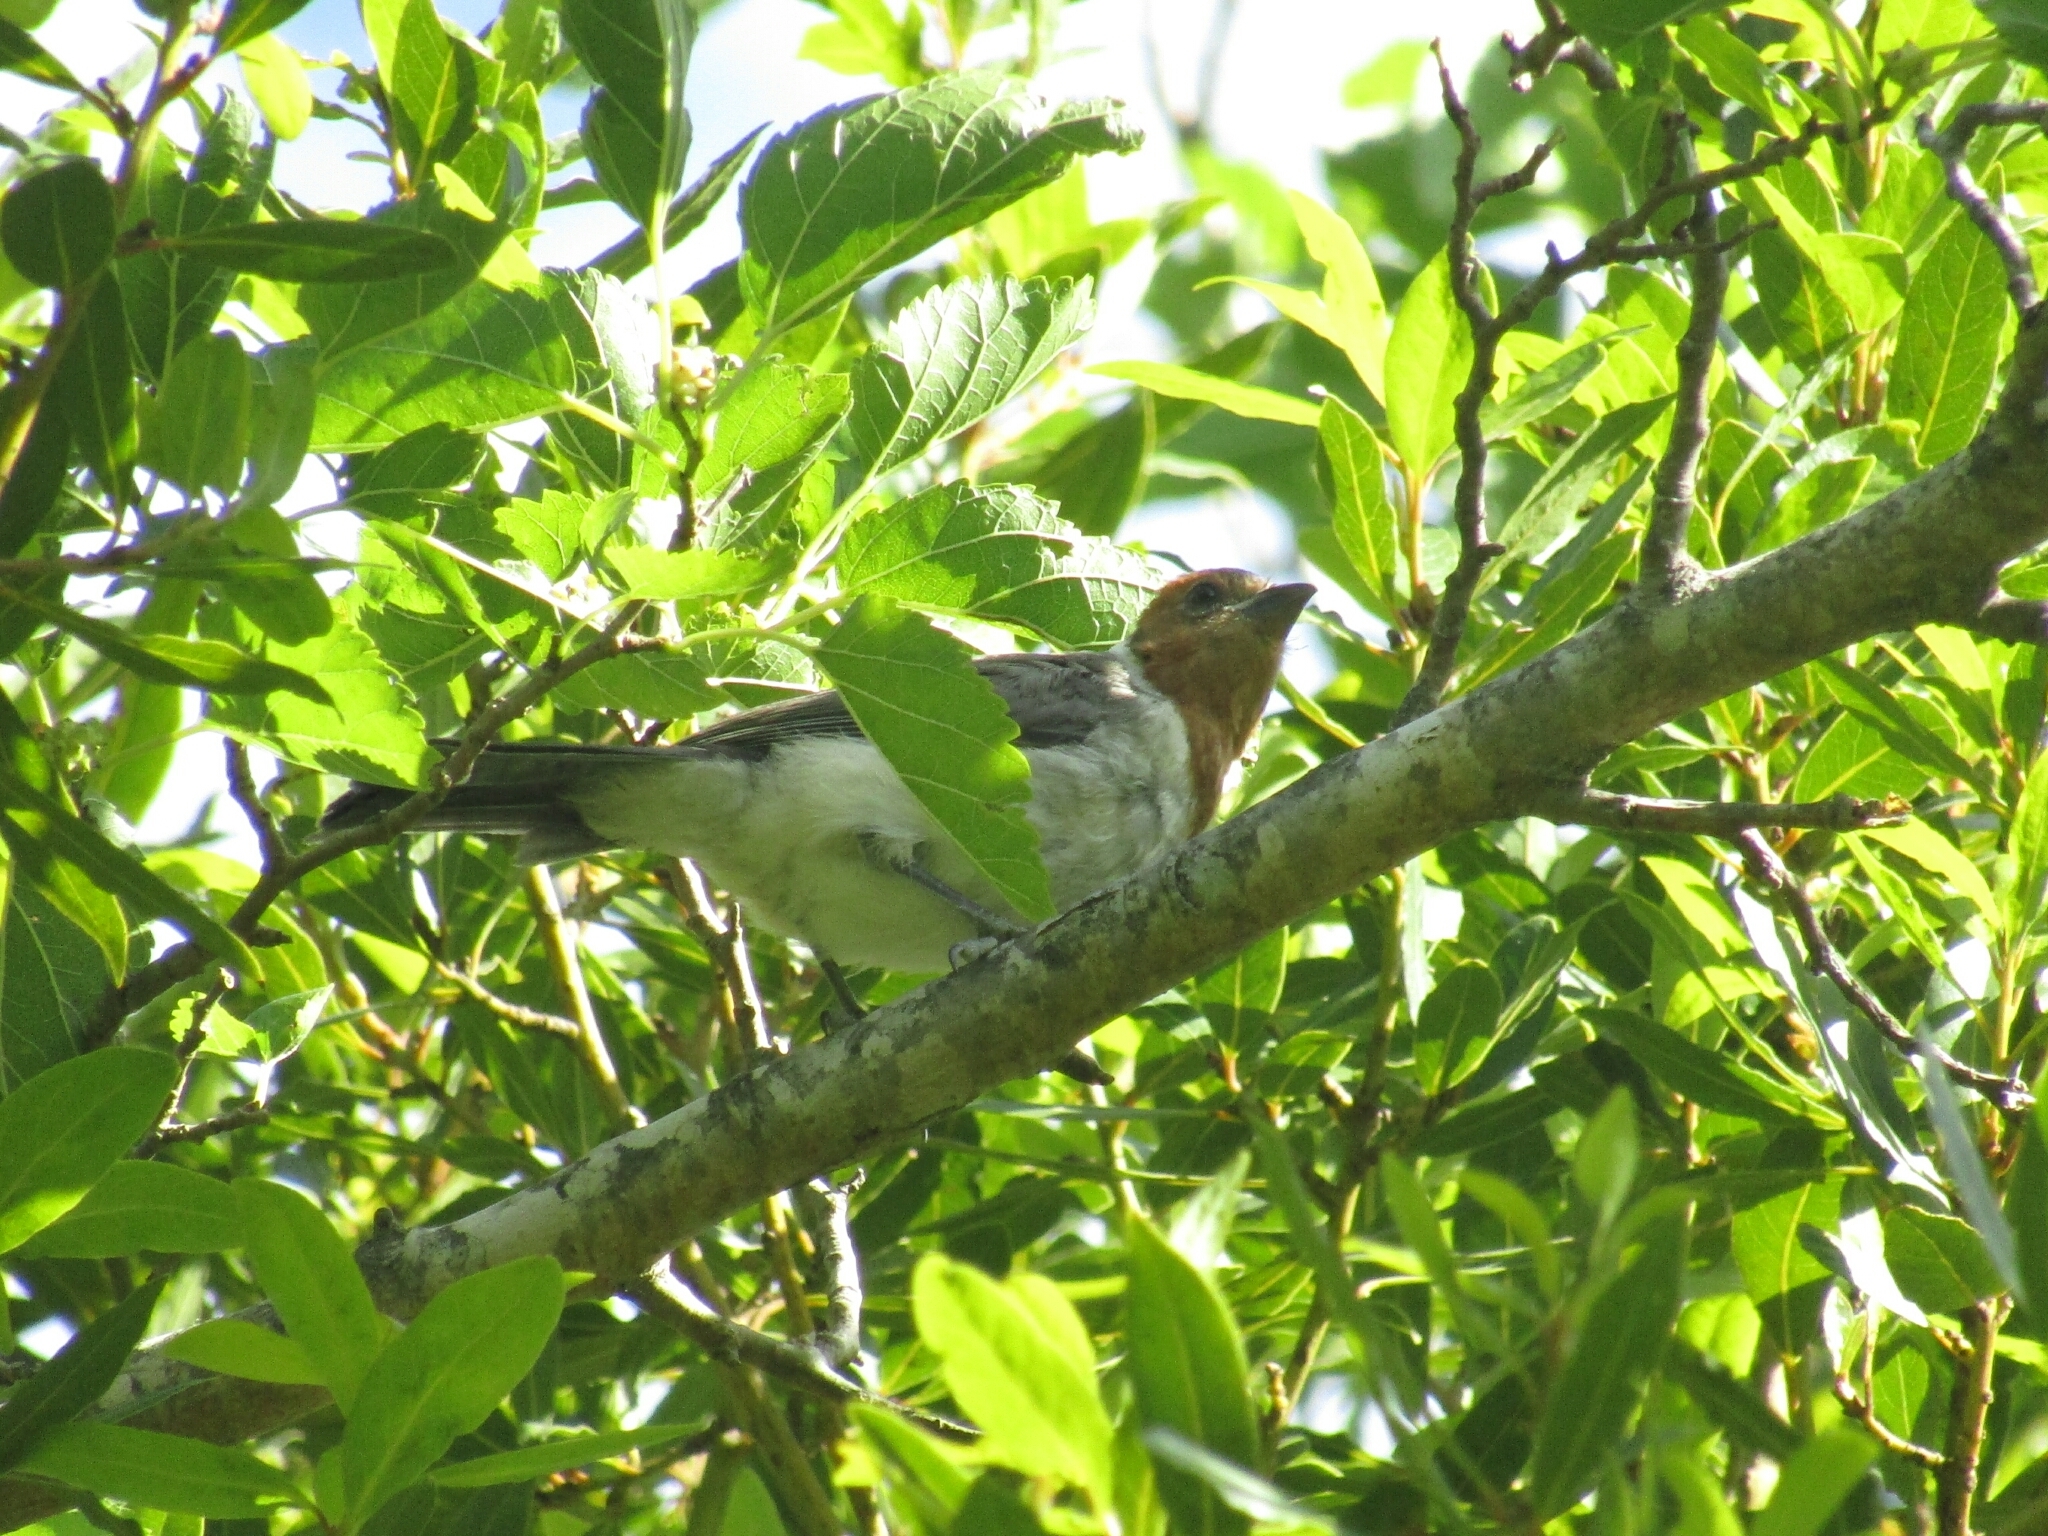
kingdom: Animalia
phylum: Chordata
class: Aves
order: Passeriformes
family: Thraupidae
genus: Paroaria
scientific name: Paroaria coronata
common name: Red-crested cardinal
